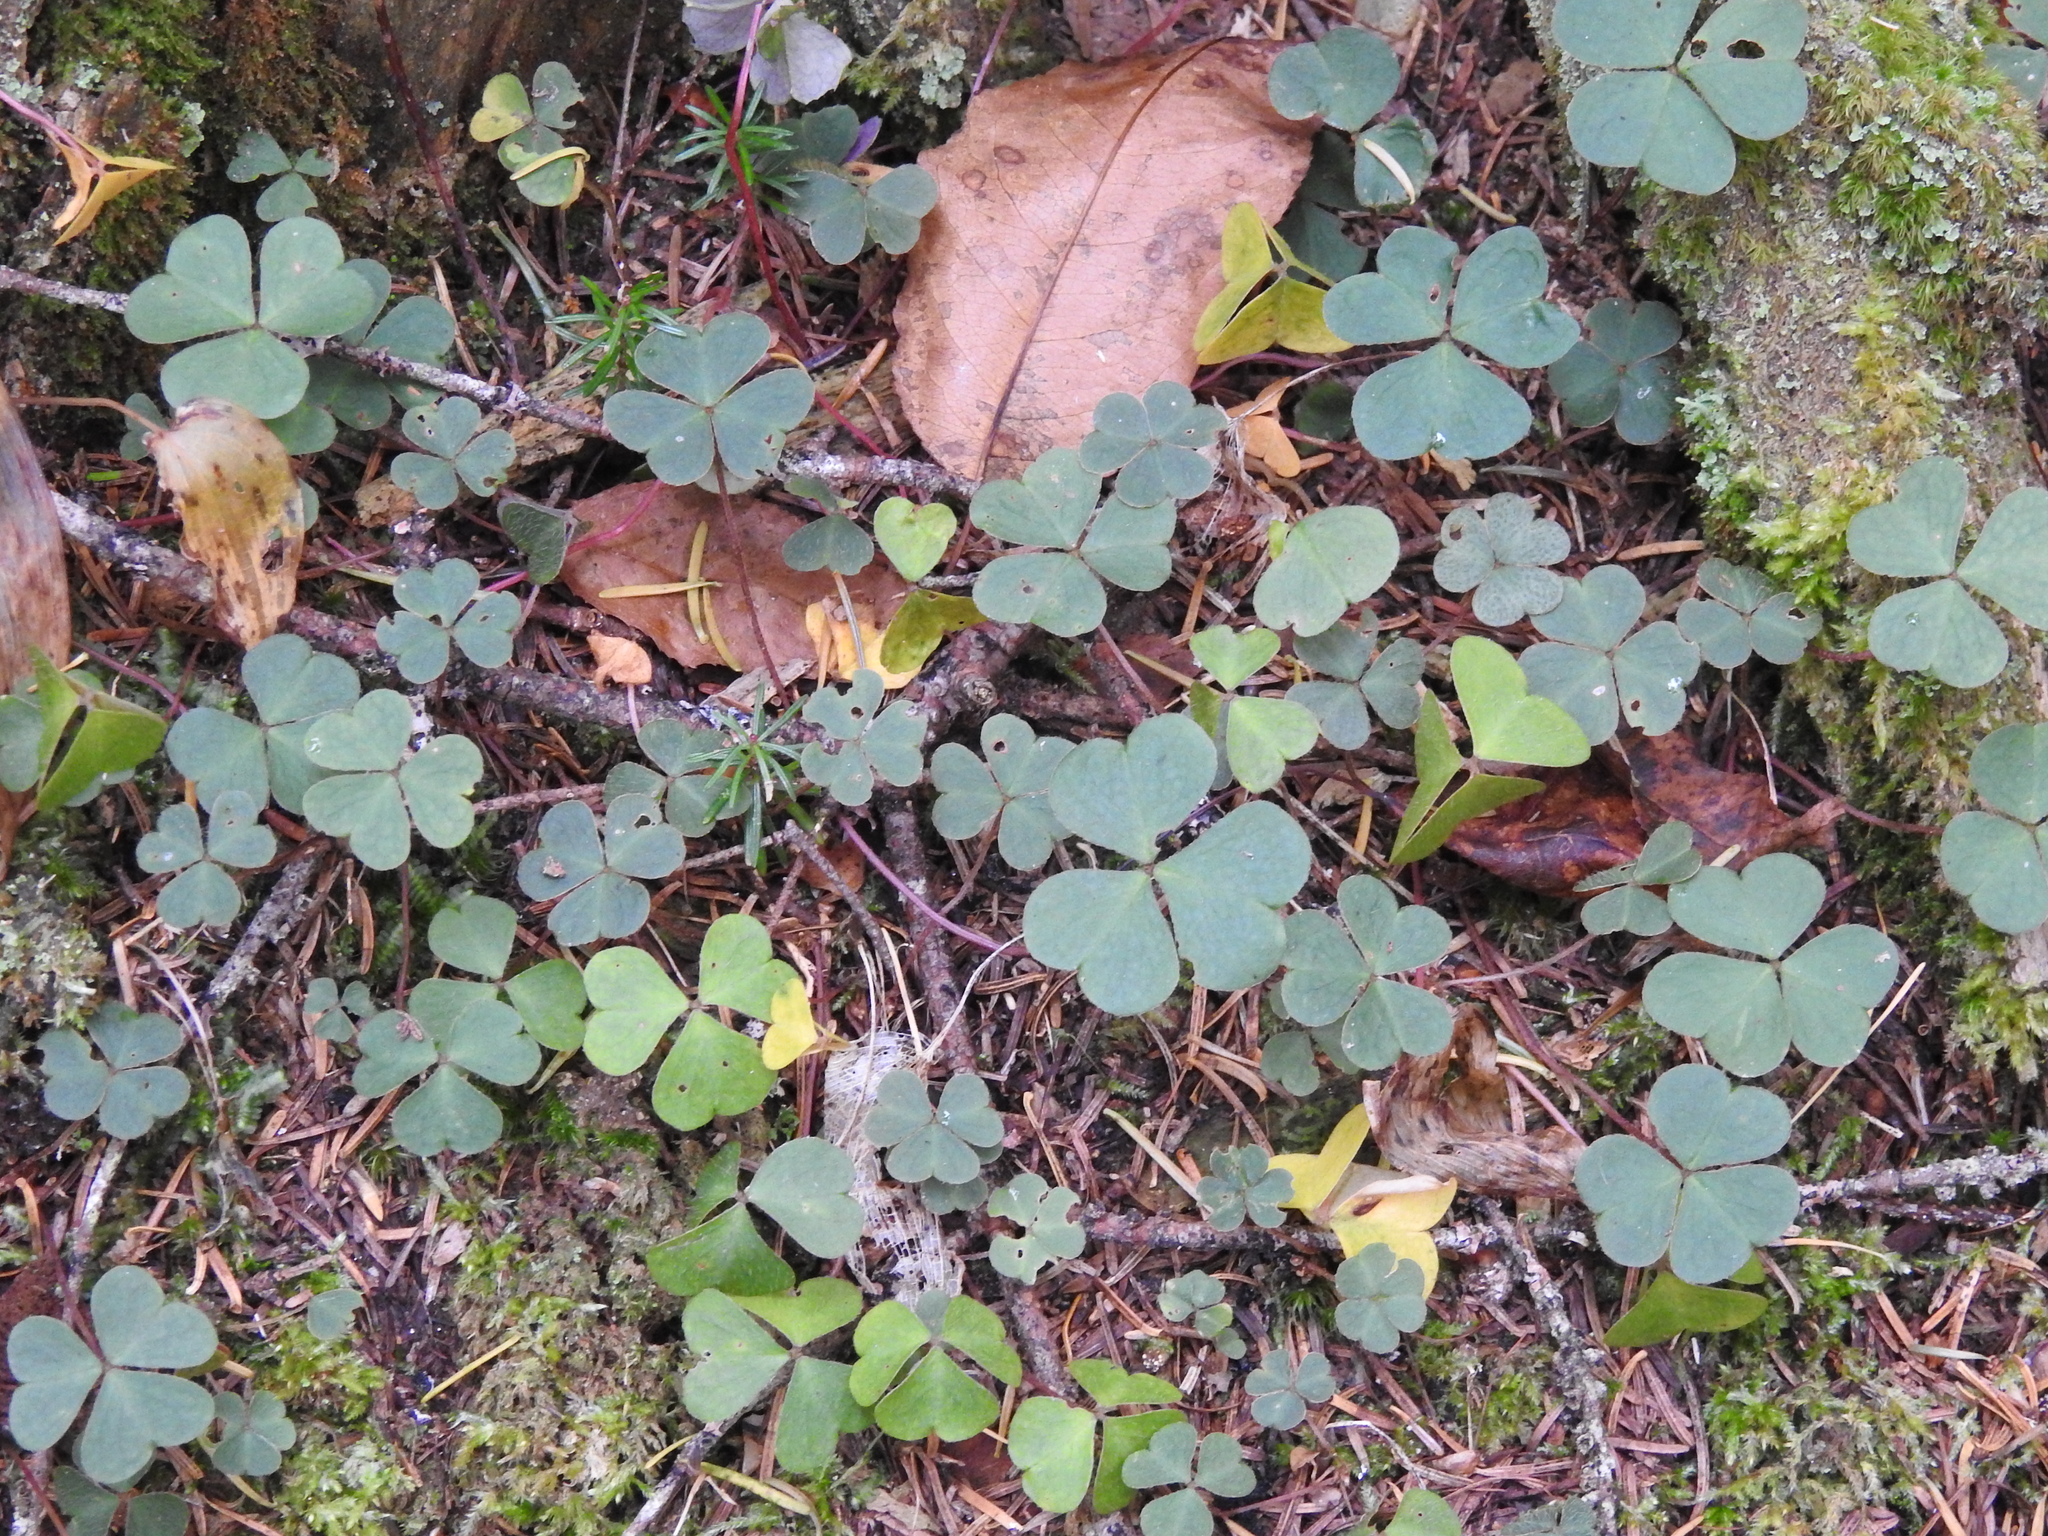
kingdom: Plantae
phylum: Tracheophyta
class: Magnoliopsida
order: Oxalidales
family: Oxalidaceae
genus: Oxalis
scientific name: Oxalis montana
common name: American wood-sorrel
